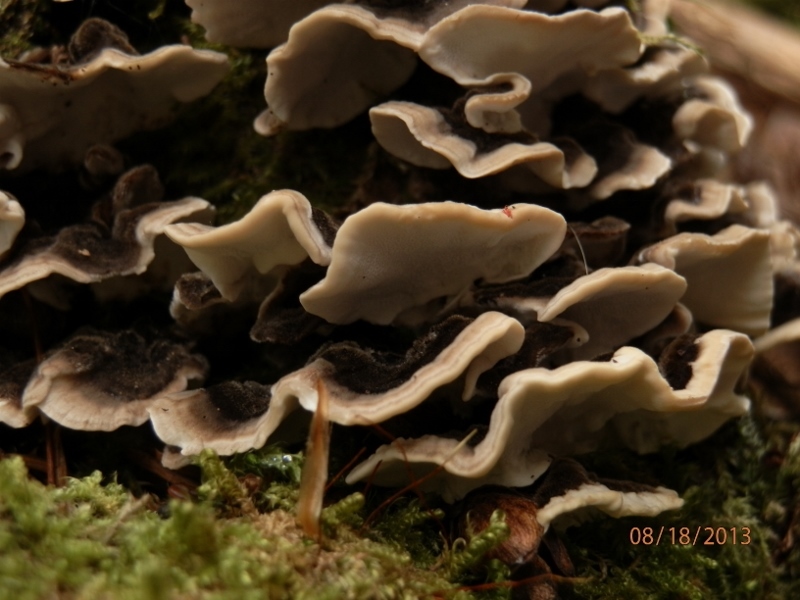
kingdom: Fungi
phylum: Basidiomycota
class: Agaricomycetes
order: Polyporales
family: Polyporaceae
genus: Trametes
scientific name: Trametes versicolor
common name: Turkeytail
